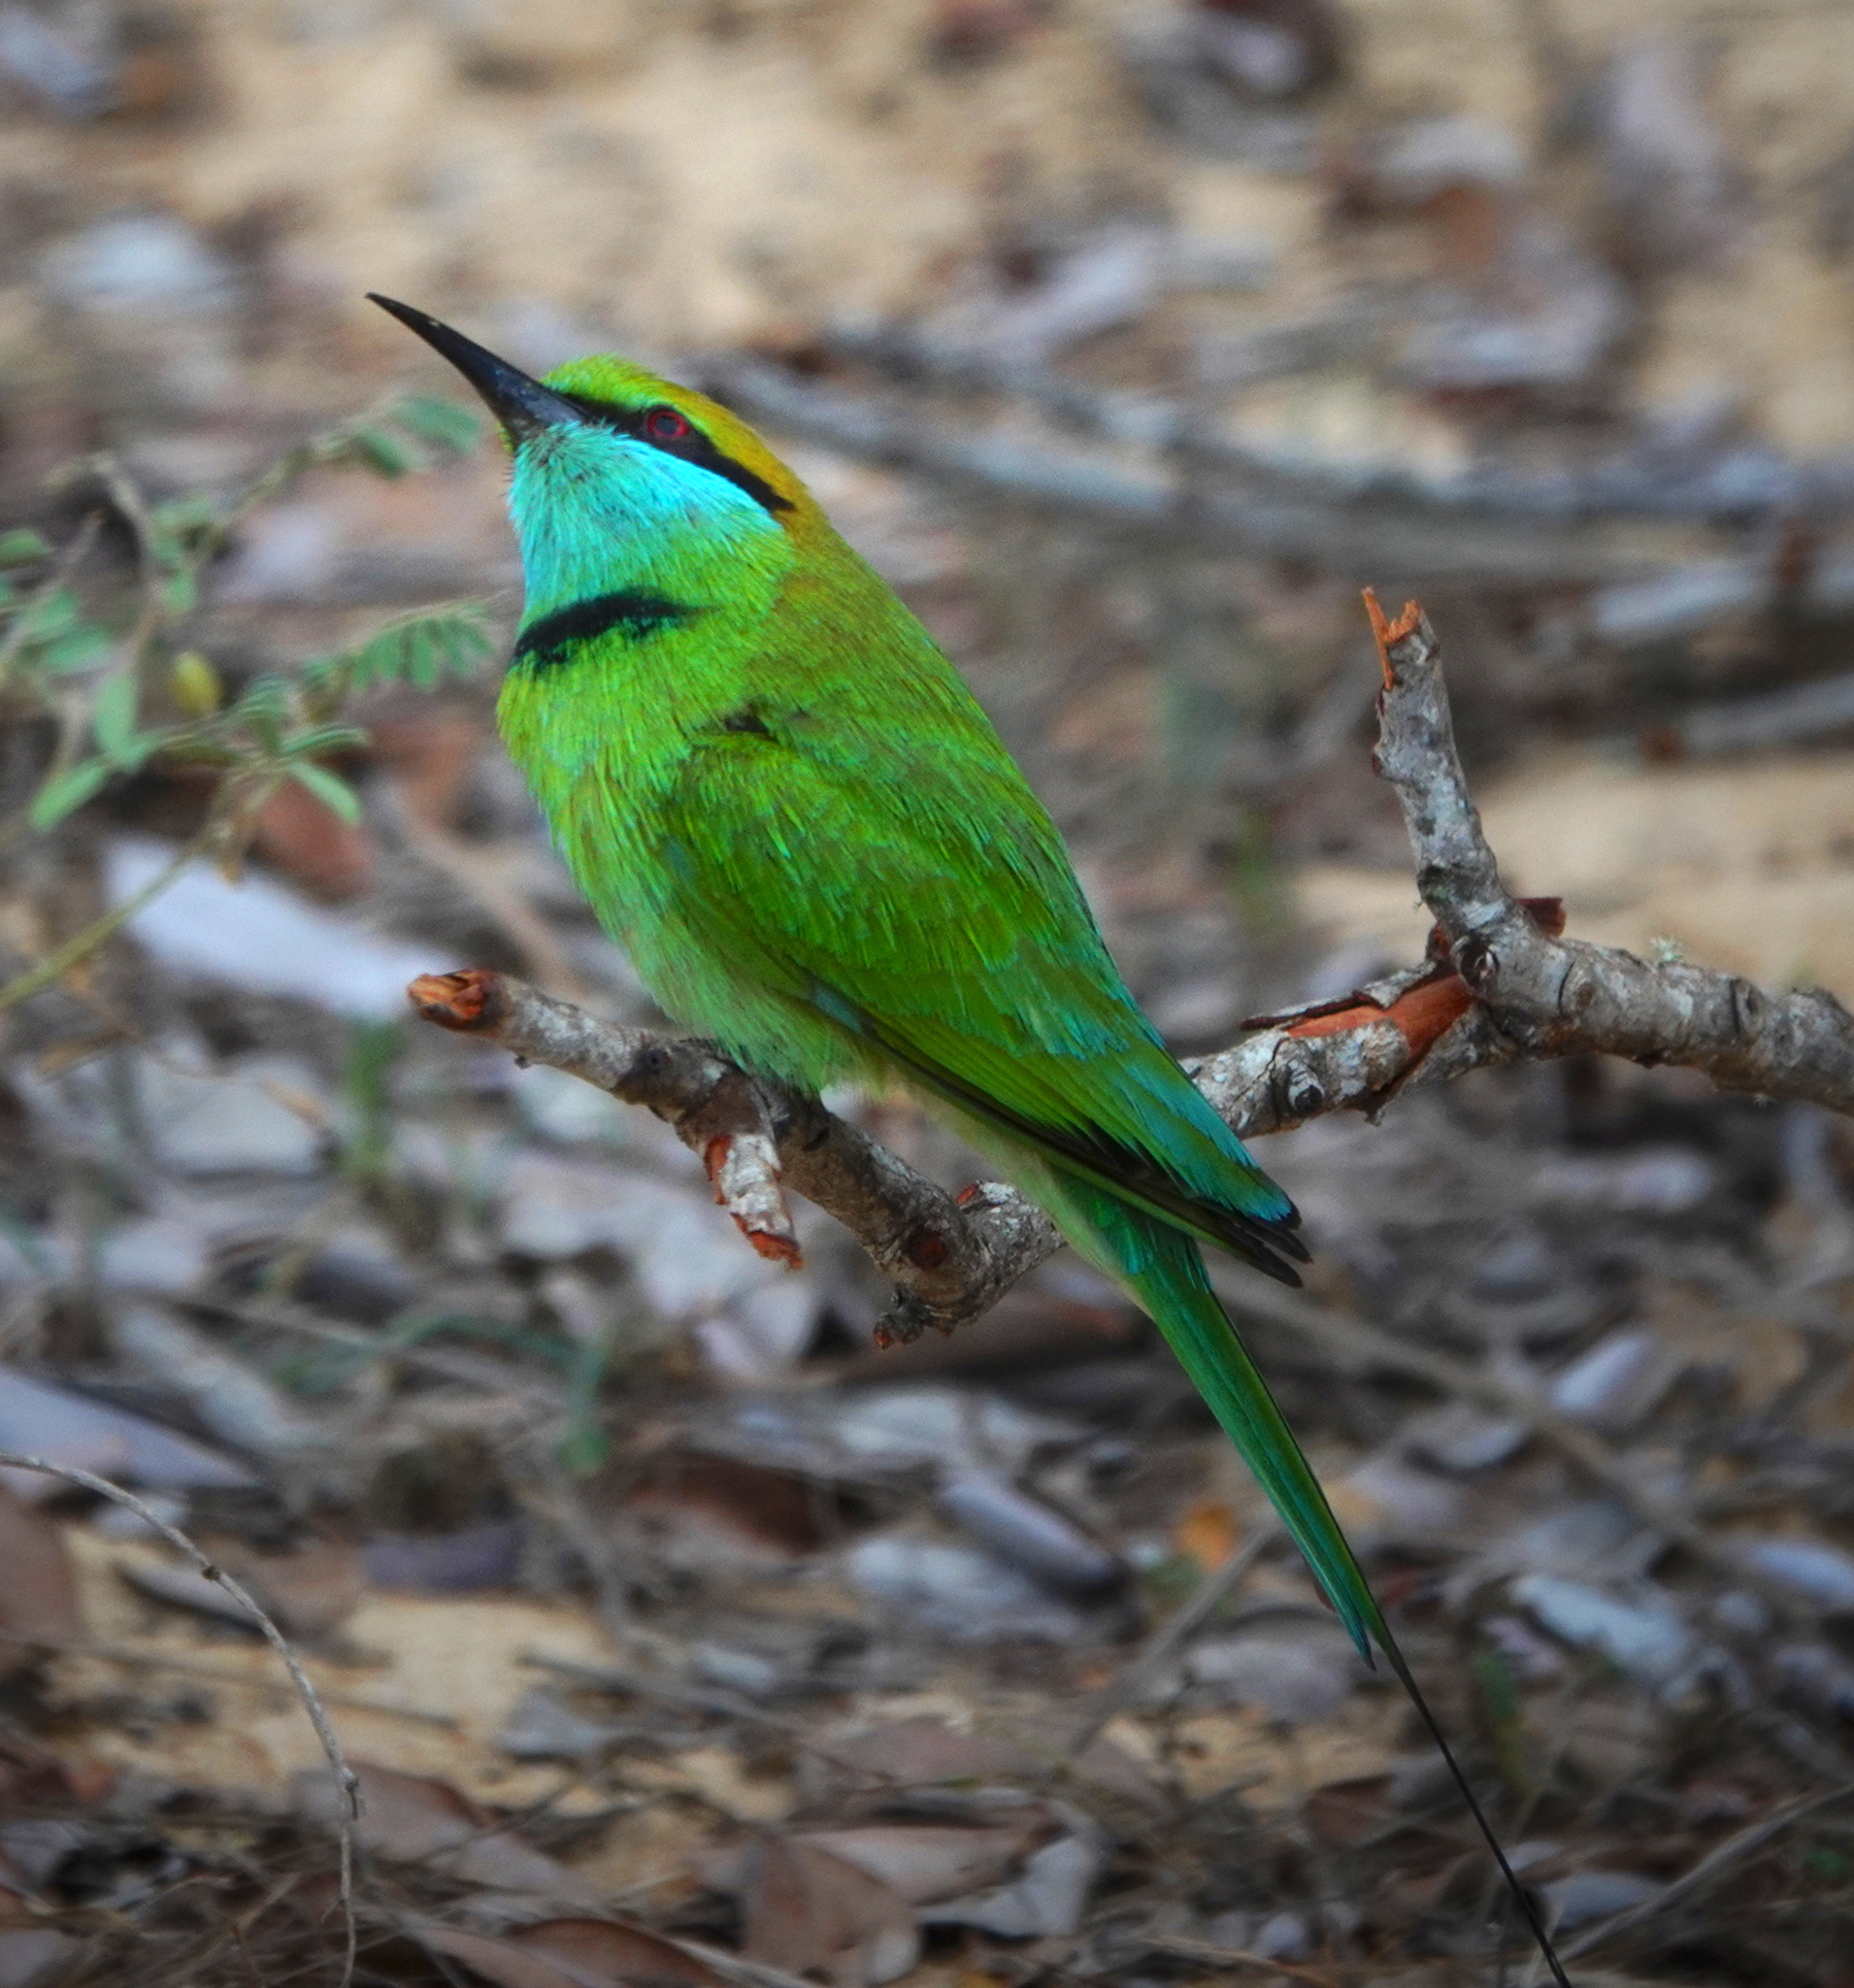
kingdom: Animalia
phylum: Chordata
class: Aves
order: Coraciiformes
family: Meropidae
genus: Merops
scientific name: Merops orientalis
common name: Green bee-eater
